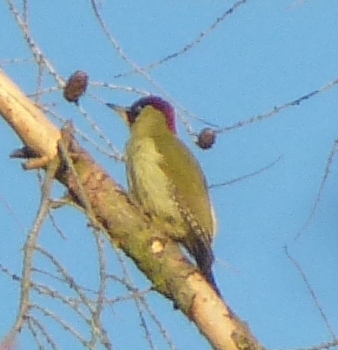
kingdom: Animalia
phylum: Chordata
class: Aves
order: Piciformes
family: Picidae
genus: Picus
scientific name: Picus viridis
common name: European green woodpecker
